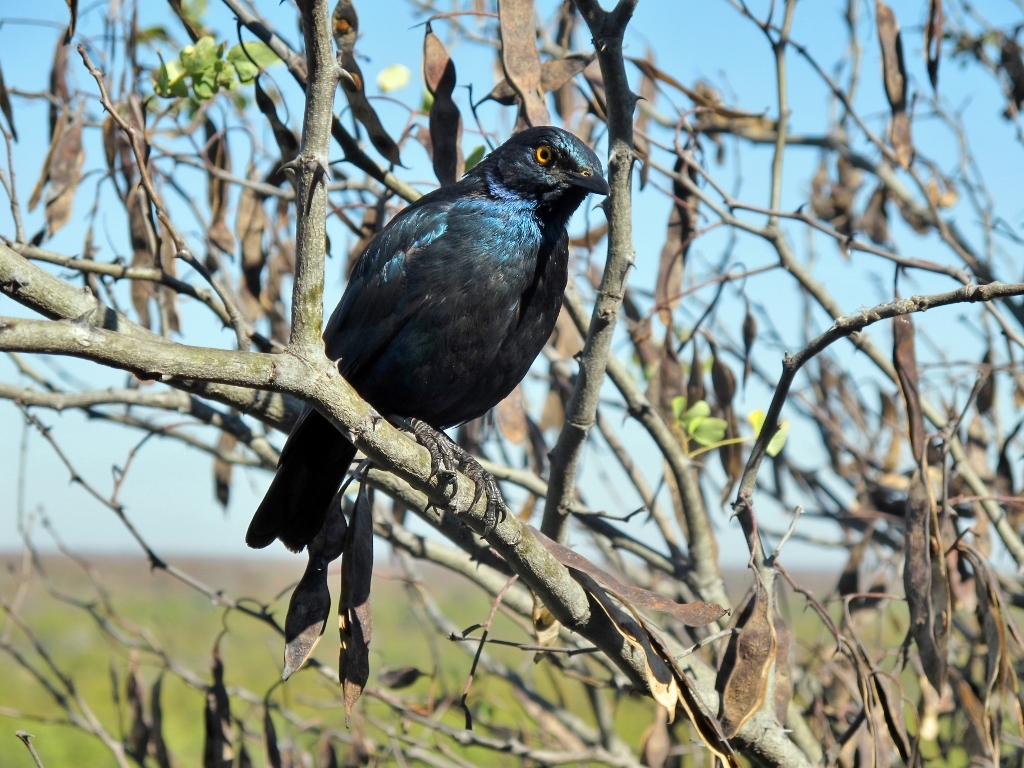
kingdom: Animalia
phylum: Chordata
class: Aves
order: Passeriformes
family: Sturnidae
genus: Lamprotornis
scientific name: Lamprotornis nitens
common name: Cape starling
